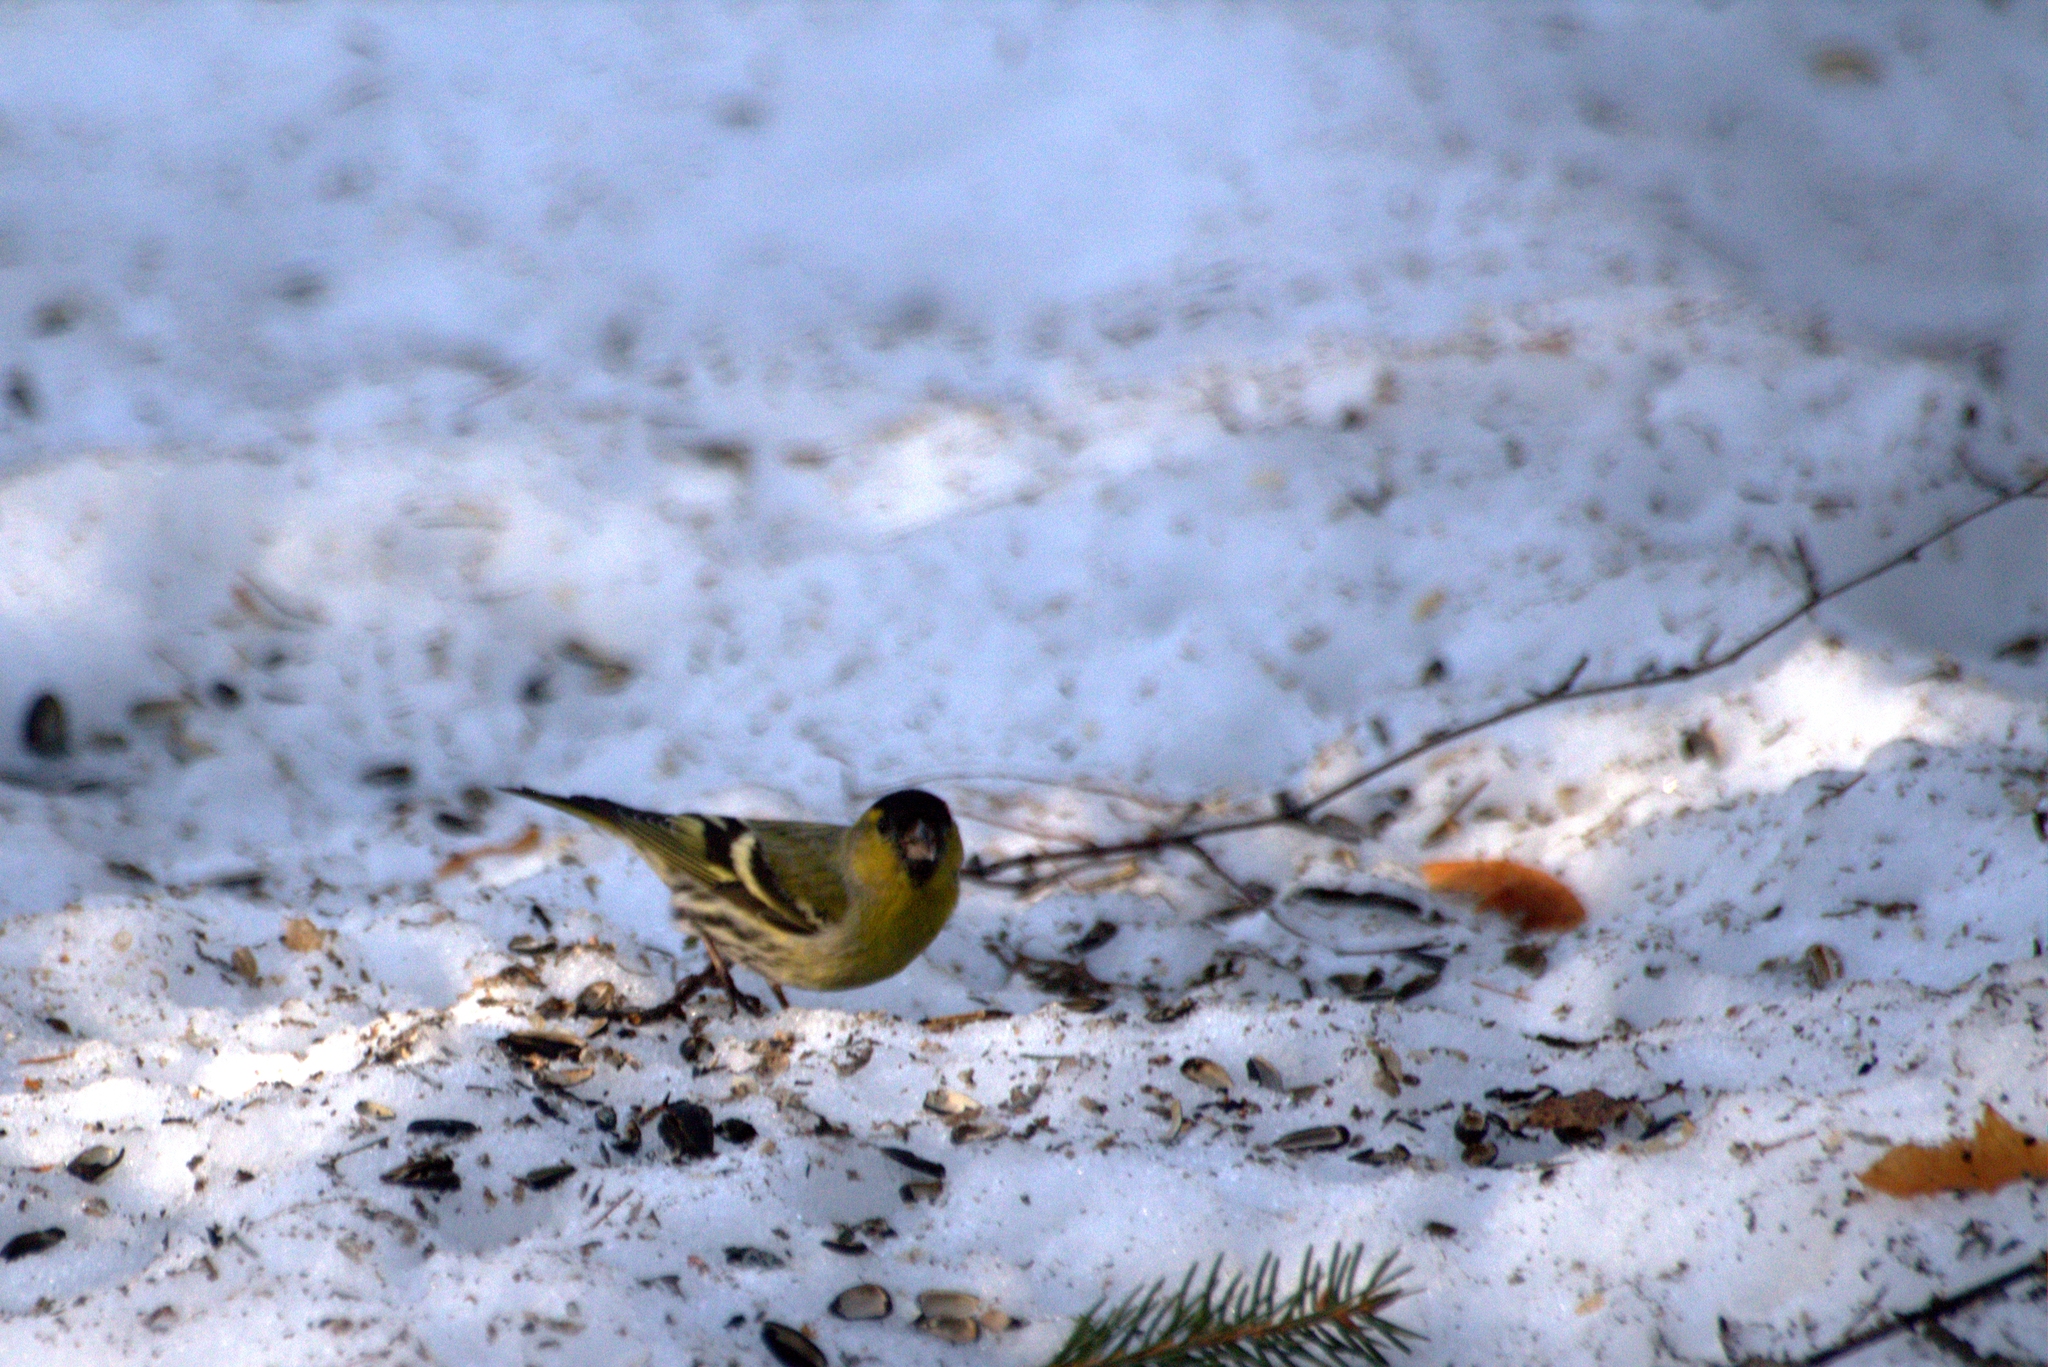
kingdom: Animalia
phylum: Chordata
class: Aves
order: Passeriformes
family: Fringillidae
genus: Spinus
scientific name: Spinus spinus
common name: Eurasian siskin
